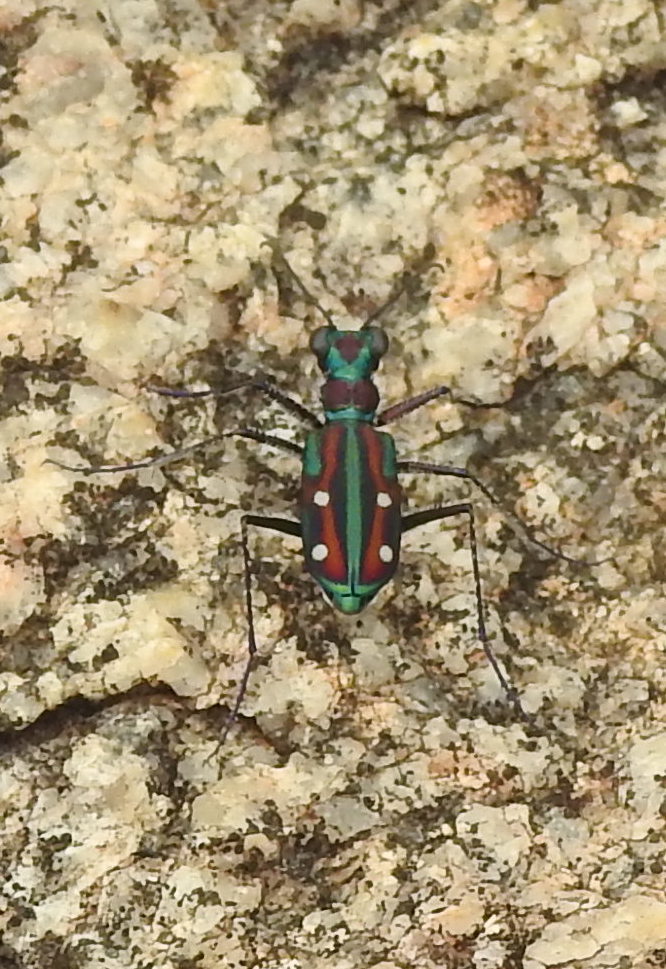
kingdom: Animalia
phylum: Arthropoda
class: Insecta
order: Coleoptera
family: Carabidae
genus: Jansenia
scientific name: Jansenia rugosiceps
